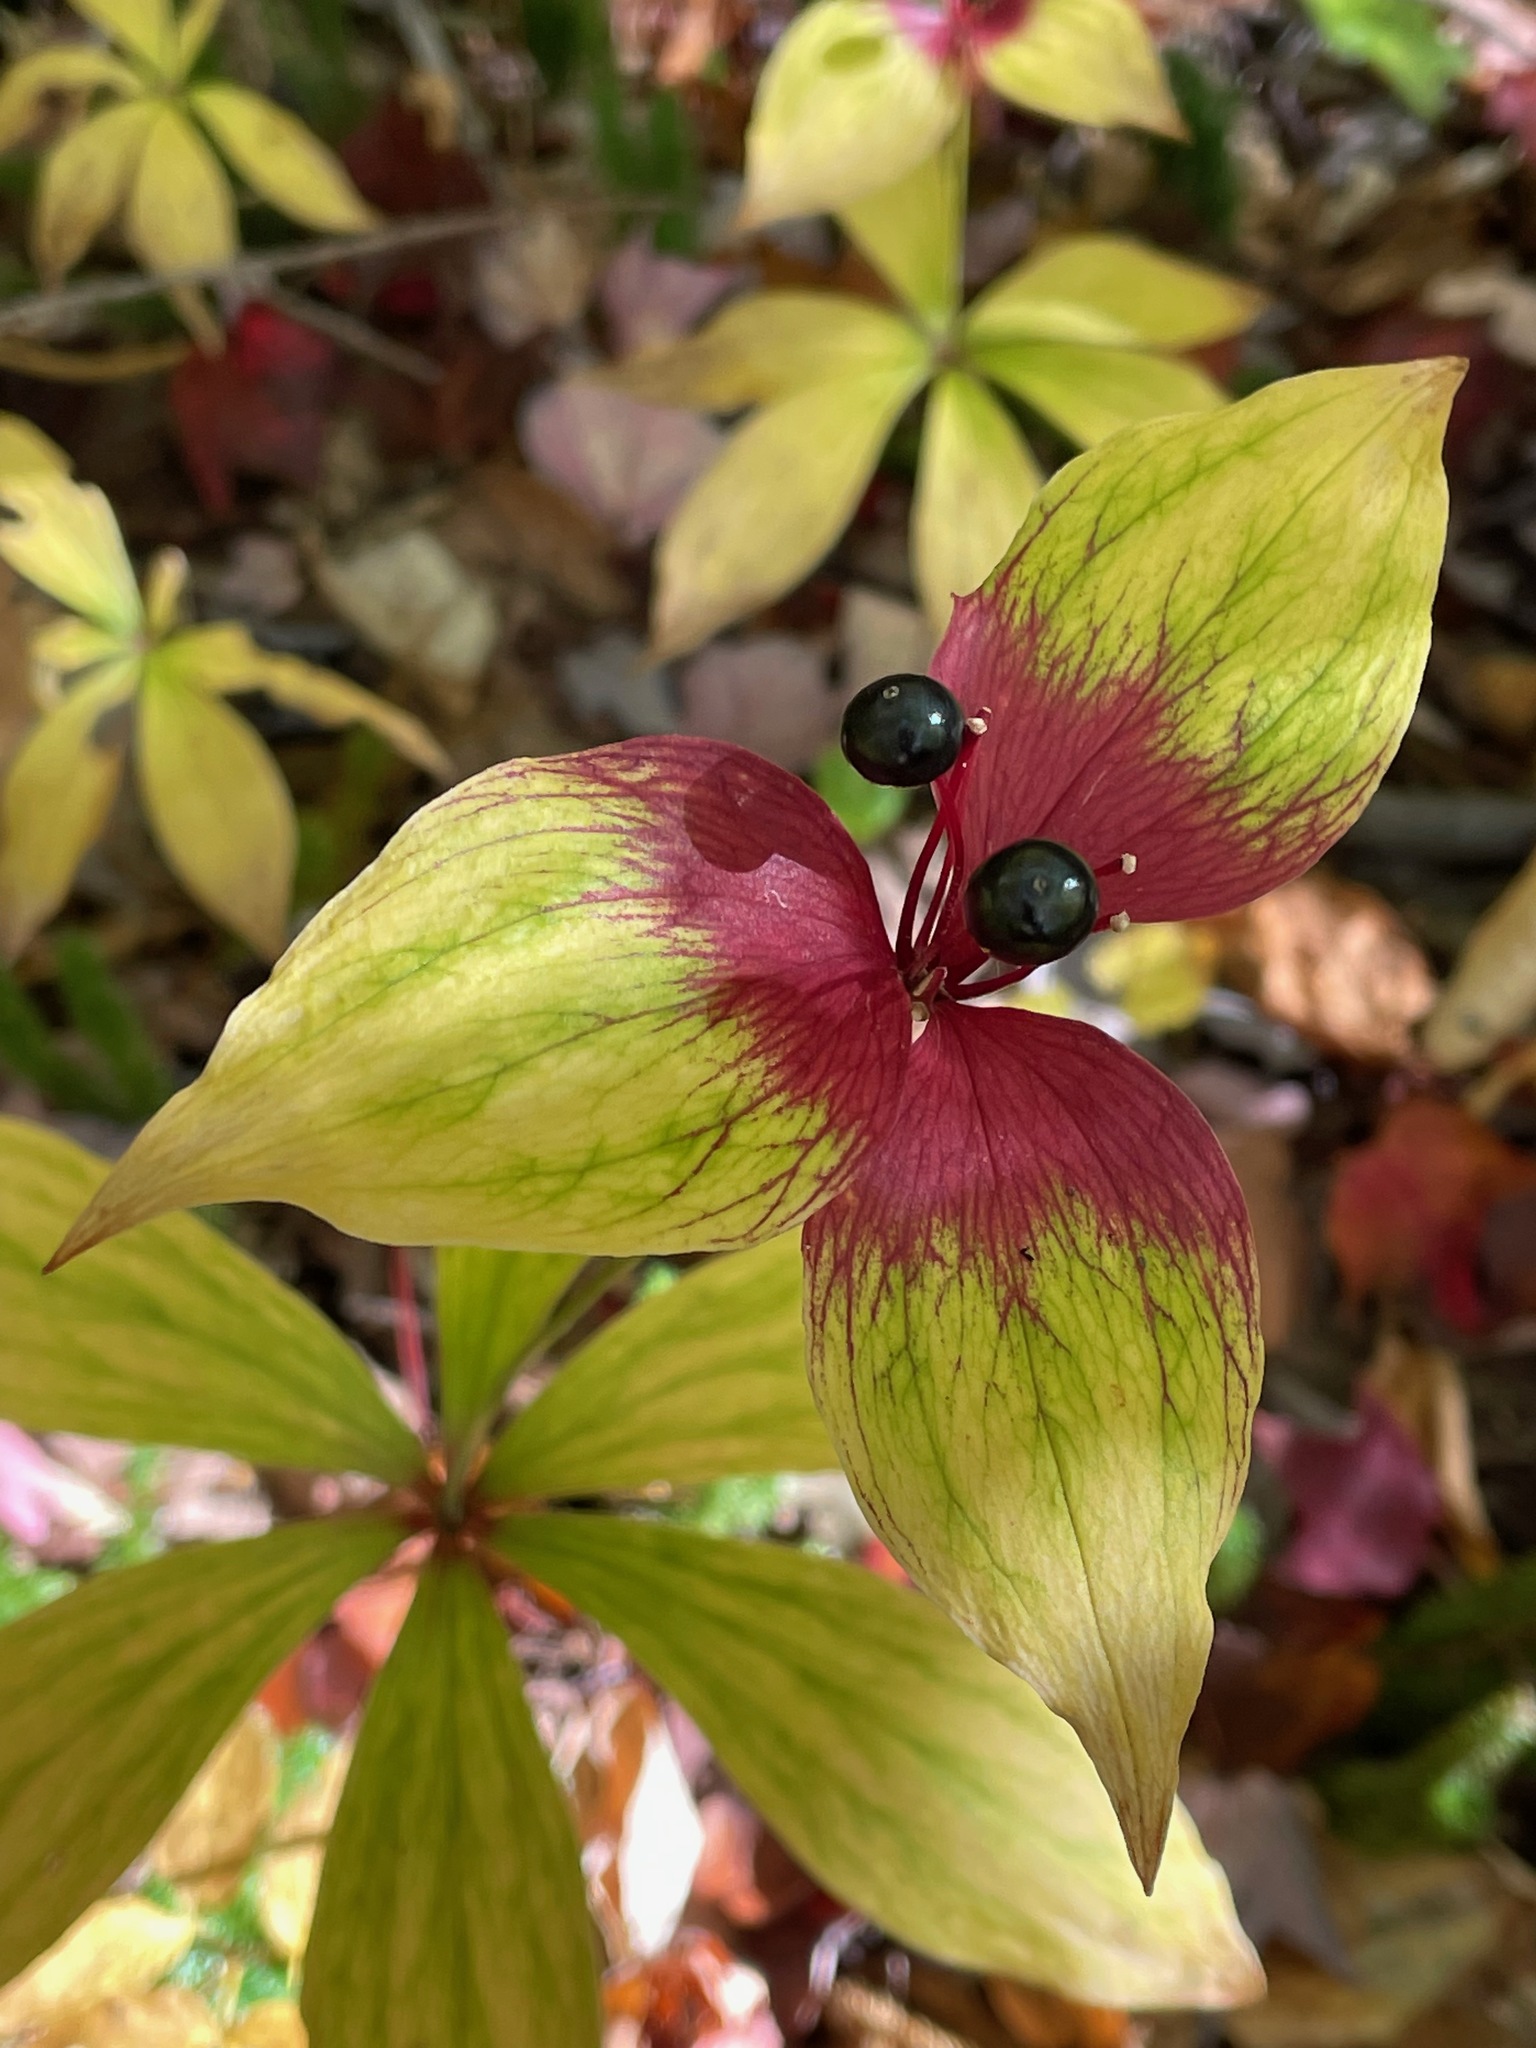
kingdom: Plantae
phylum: Tracheophyta
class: Liliopsida
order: Liliales
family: Liliaceae
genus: Medeola
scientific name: Medeola virginiana
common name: Indian cucumber-root
